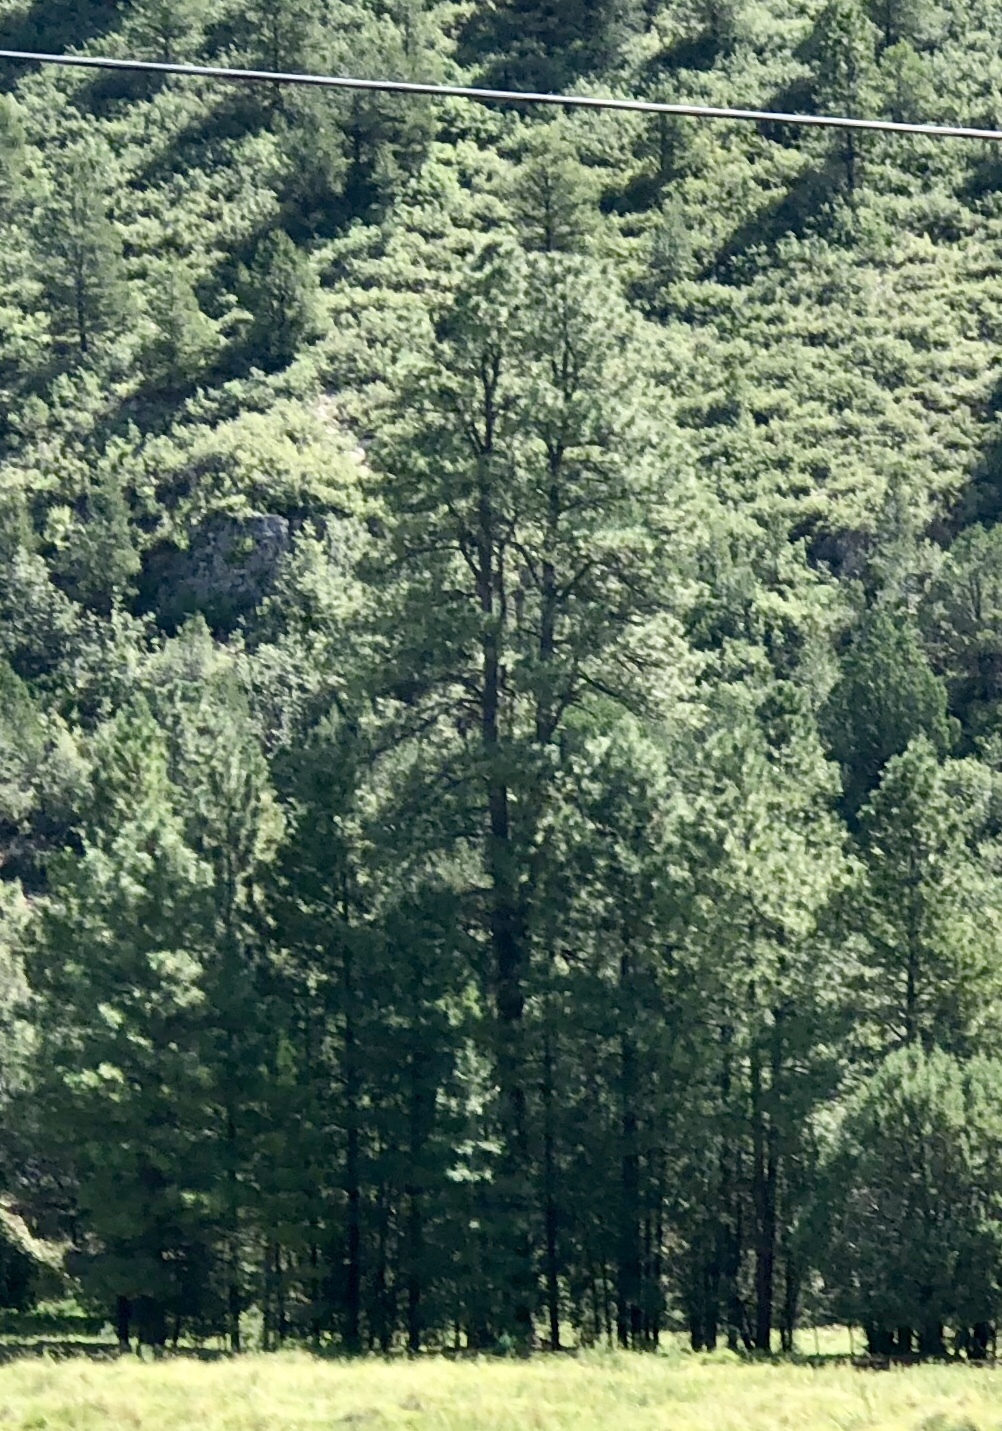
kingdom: Plantae
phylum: Tracheophyta
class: Pinopsida
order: Pinales
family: Pinaceae
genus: Pinus
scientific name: Pinus ponderosa
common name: Western yellow-pine
